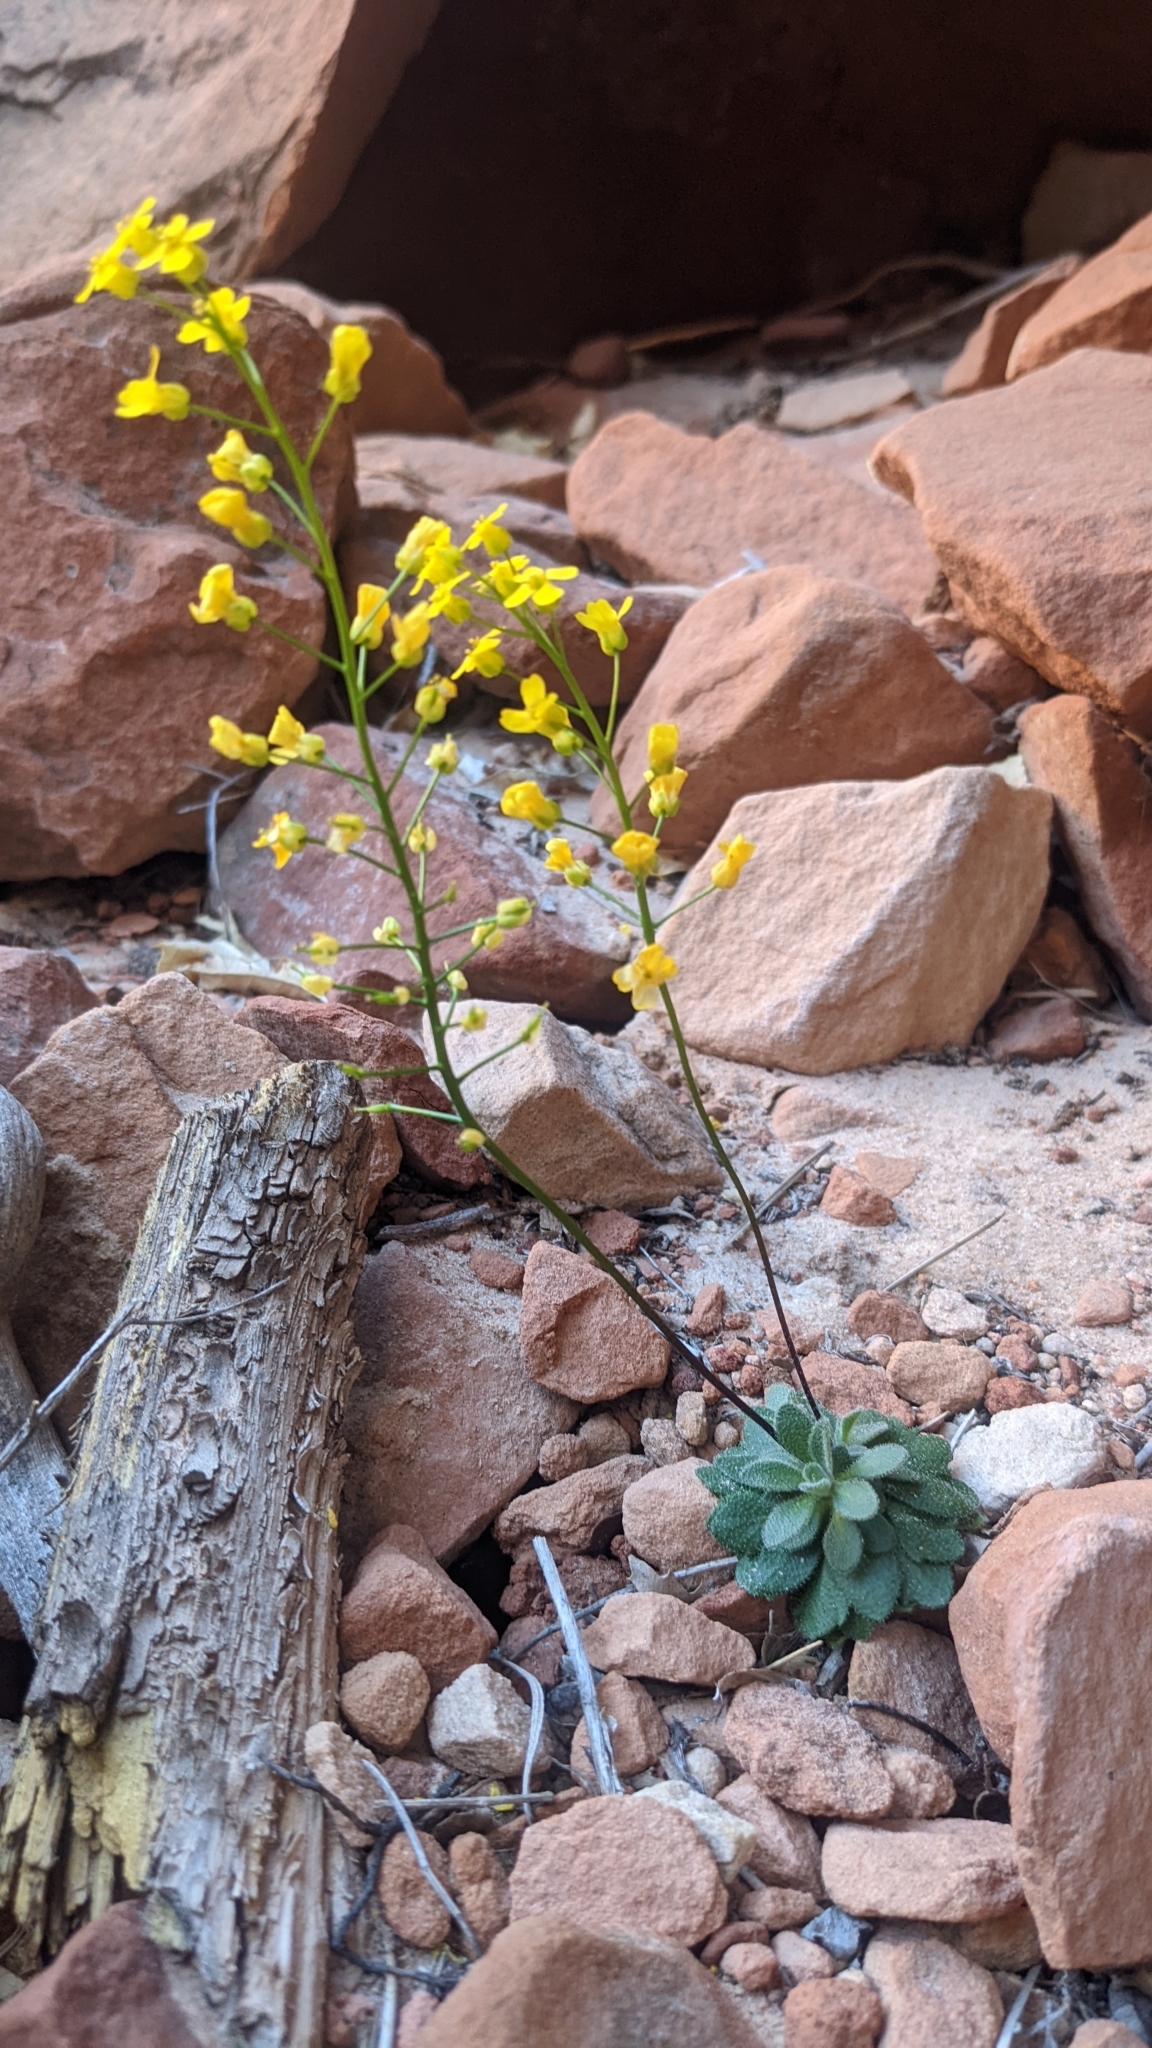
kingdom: Plantae
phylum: Tracheophyta
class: Magnoliopsida
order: Brassicales
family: Brassicaceae
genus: Draba
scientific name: Draba zionensis
